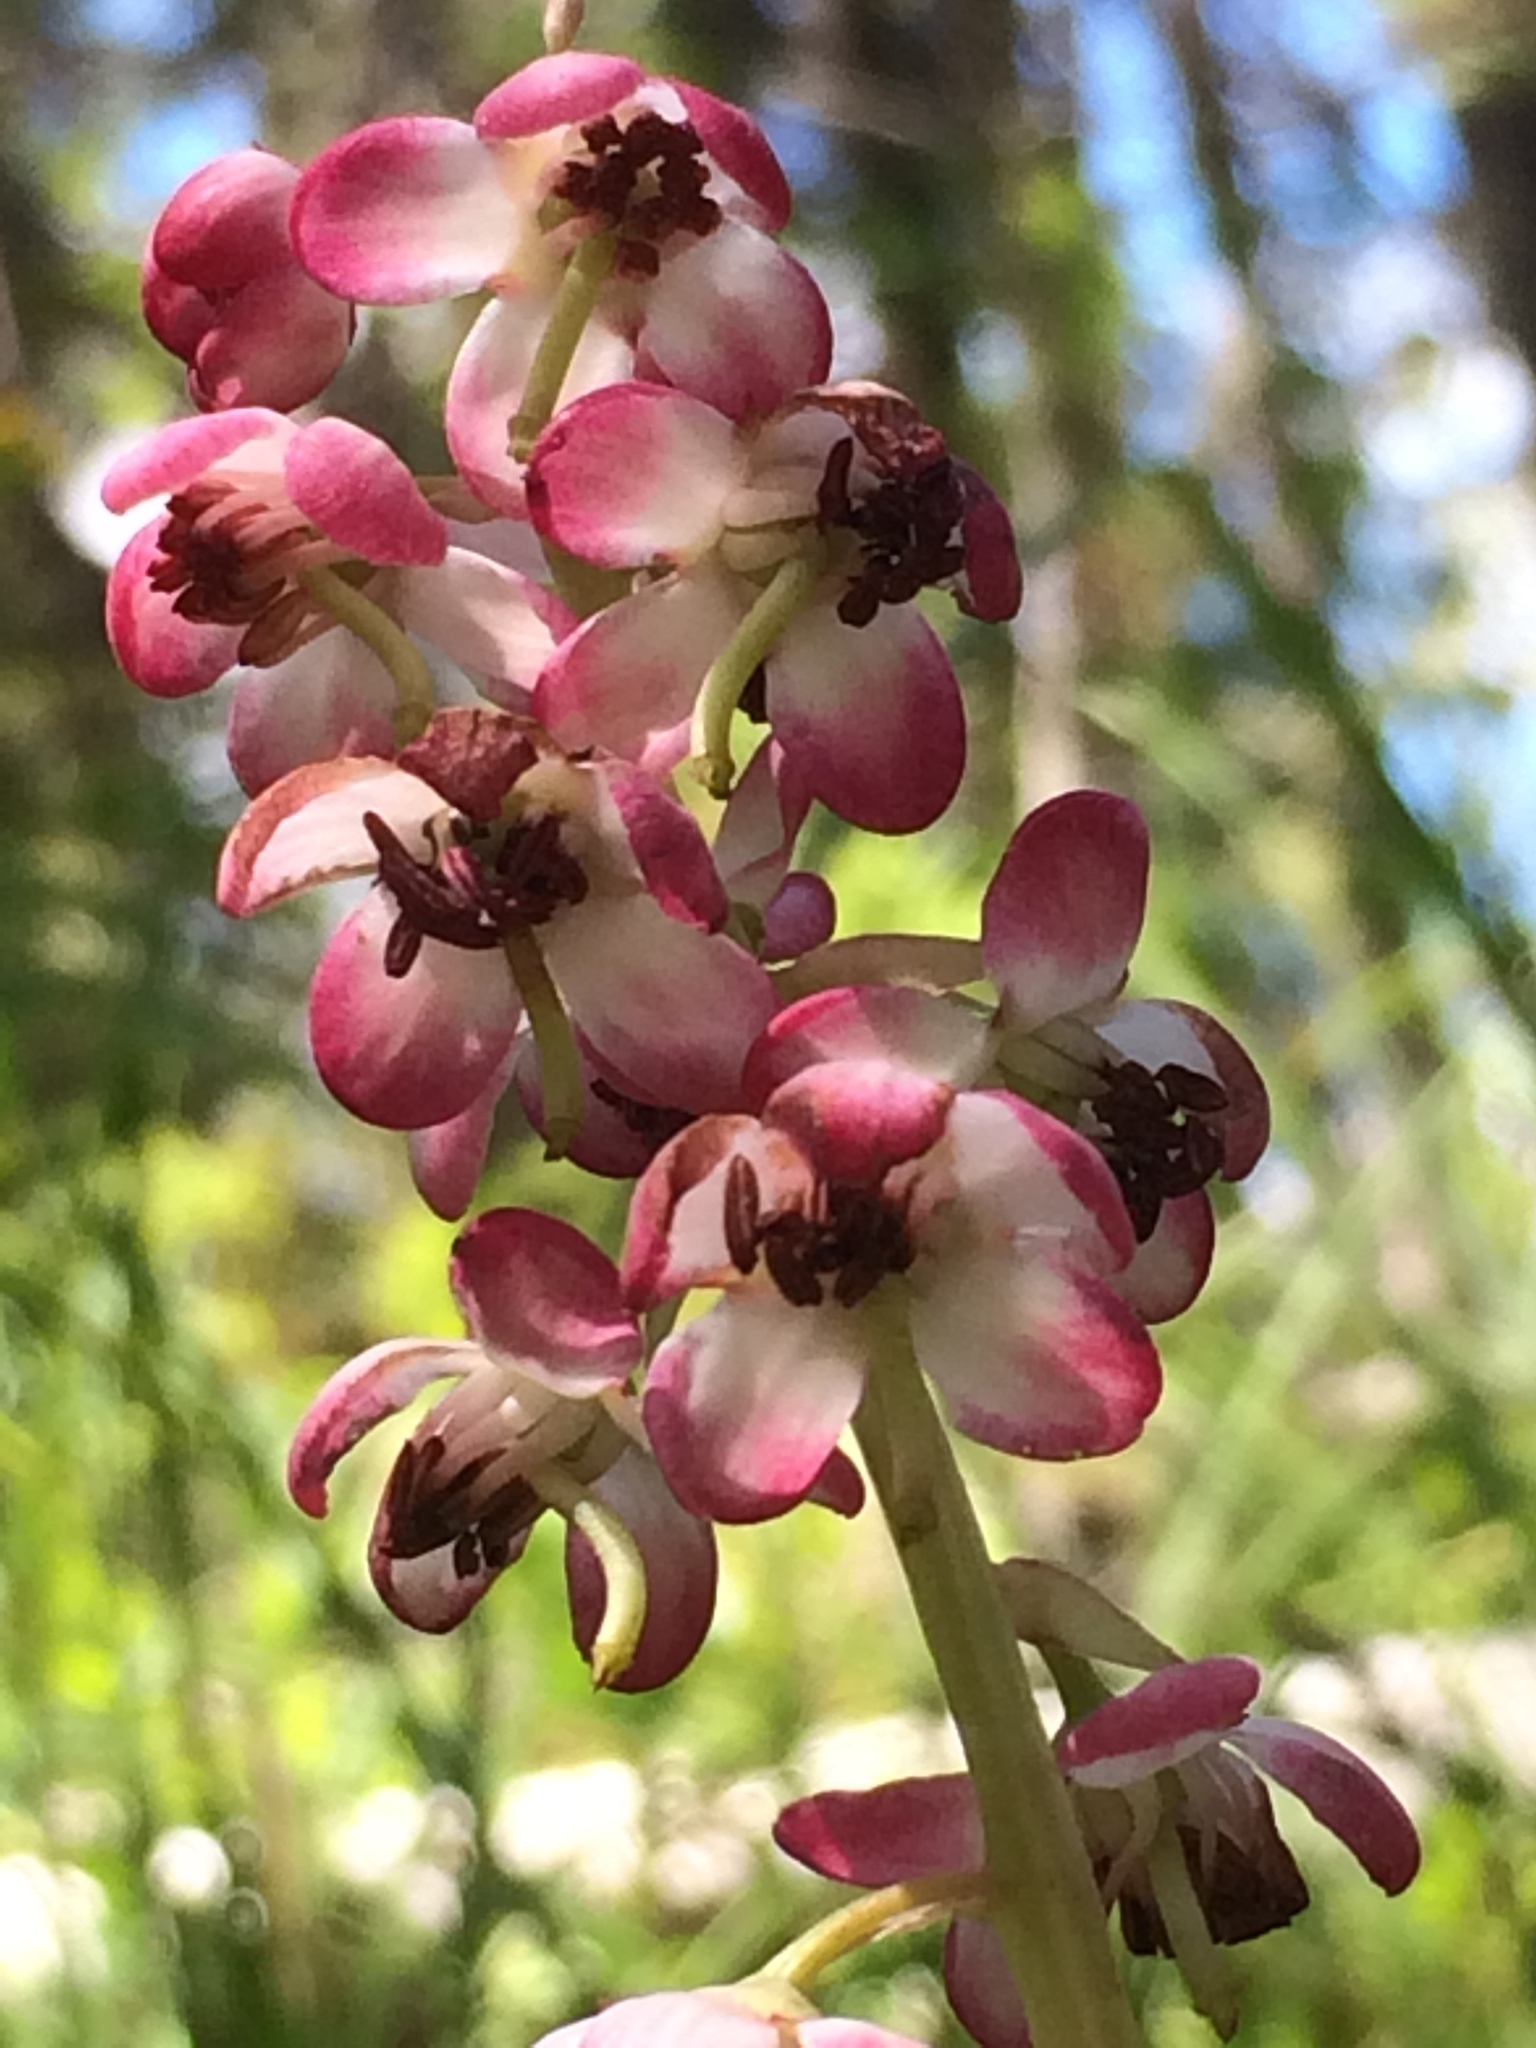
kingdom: Plantae
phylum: Tracheophyta
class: Magnoliopsida
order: Ericales
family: Ericaceae
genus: Pyrola
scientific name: Pyrola asarifolia
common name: Bog wintergreen
